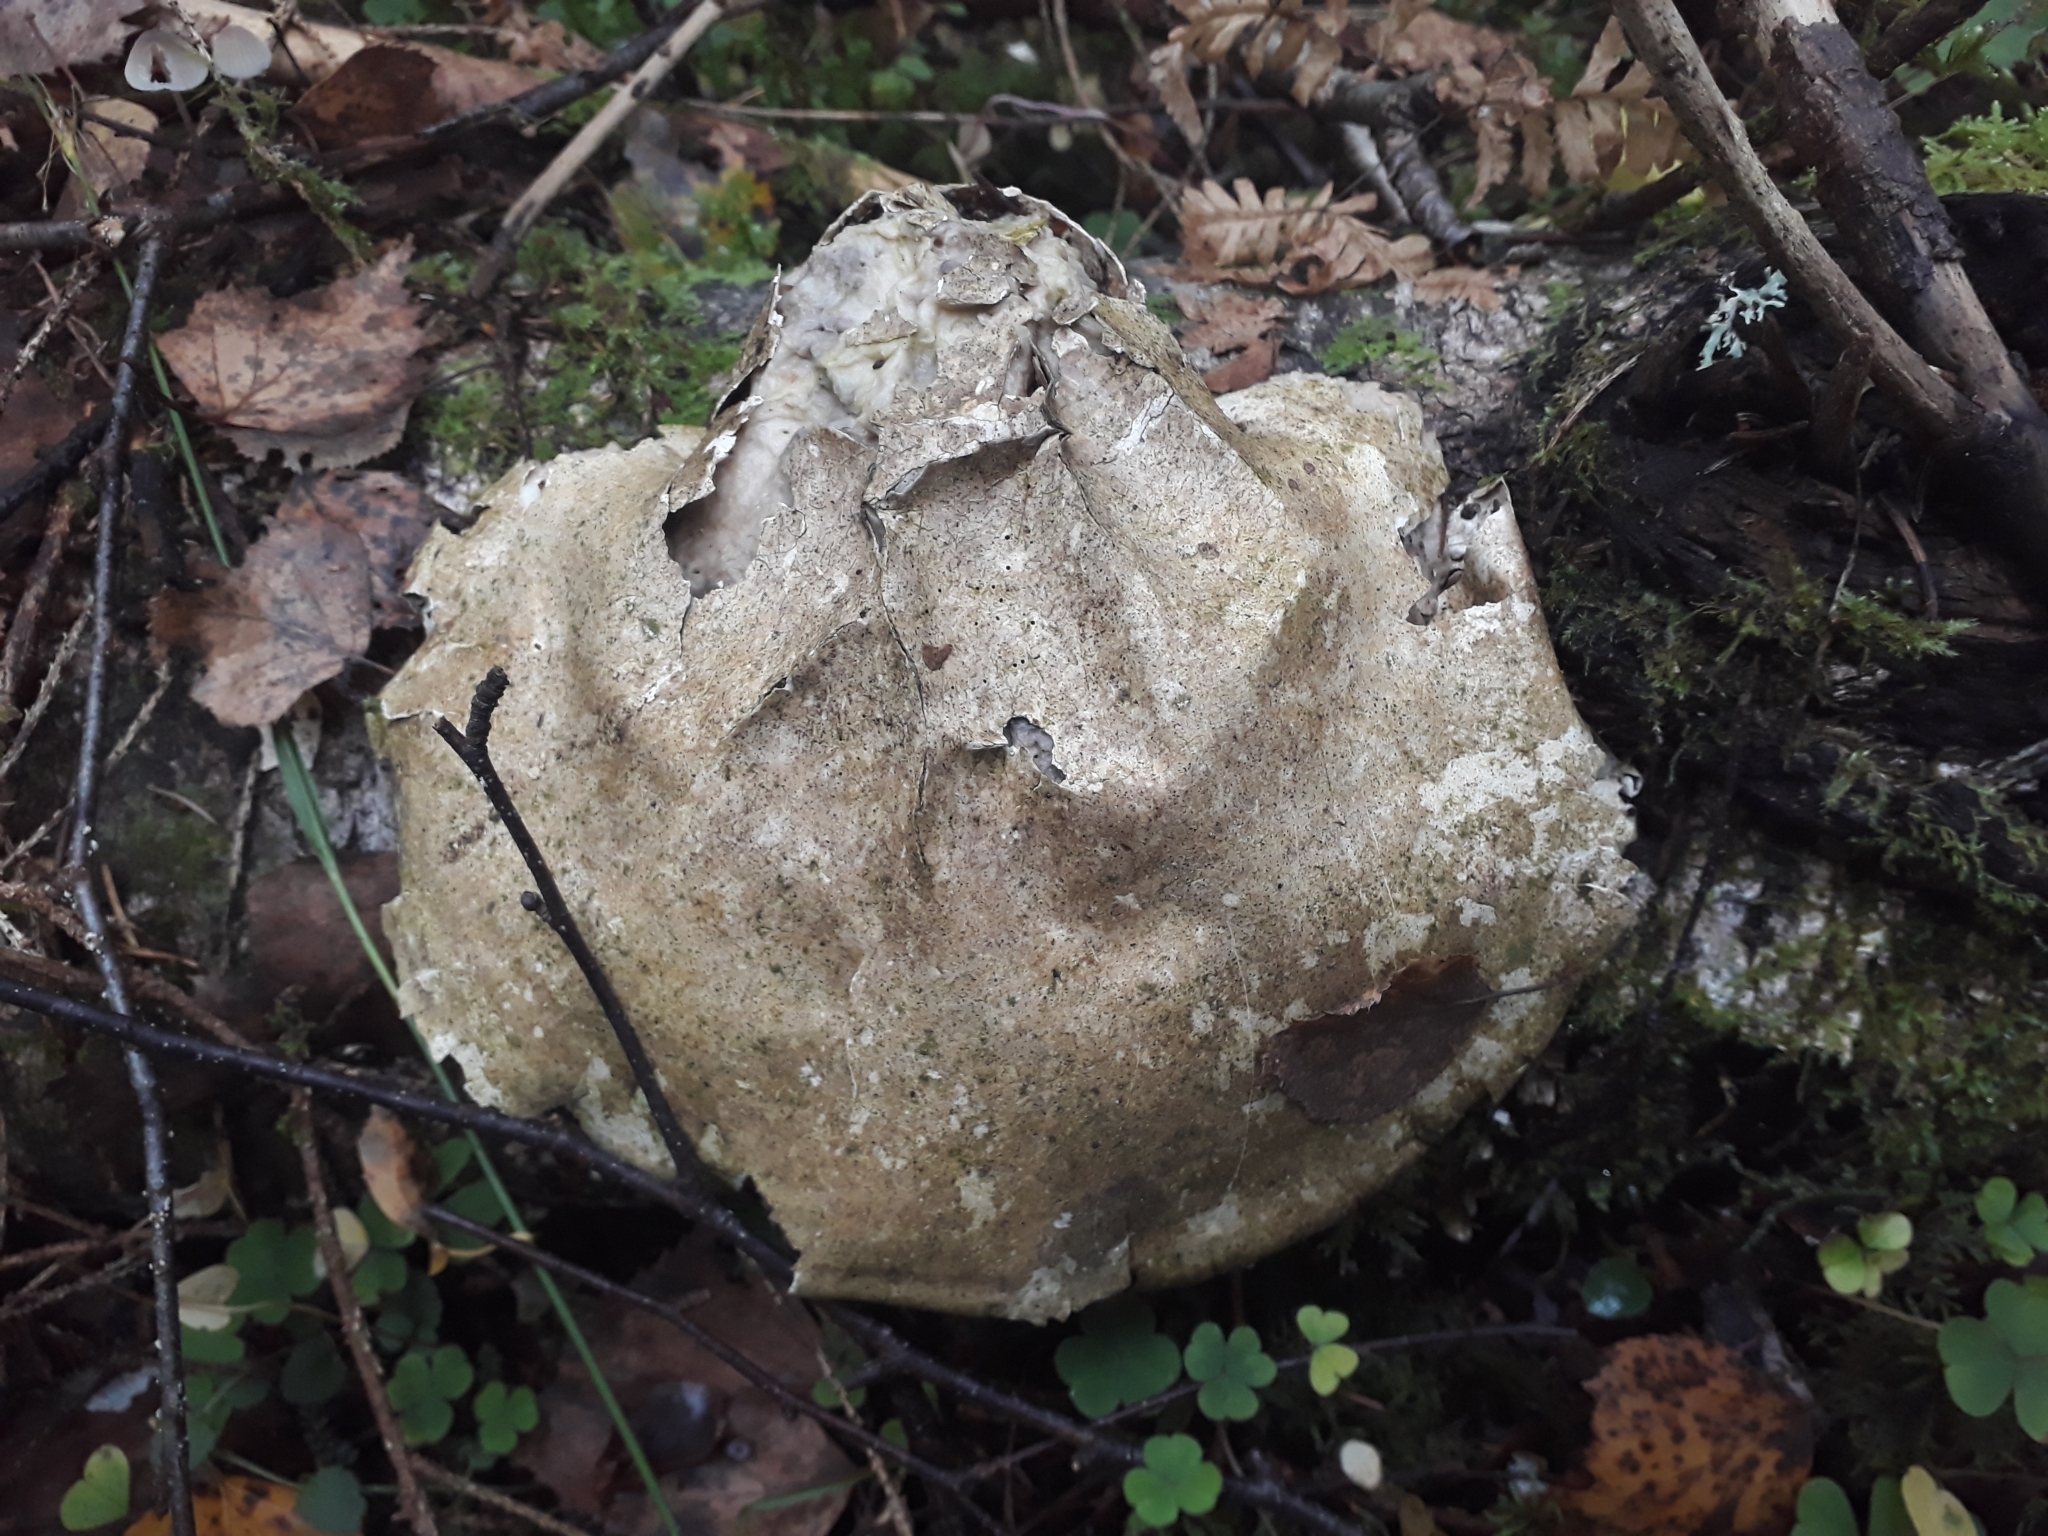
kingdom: Fungi
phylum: Basidiomycota
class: Agaricomycetes
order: Polyporales
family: Fomitopsidaceae
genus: Fomitopsis
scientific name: Fomitopsis betulina
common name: Birch polypore
